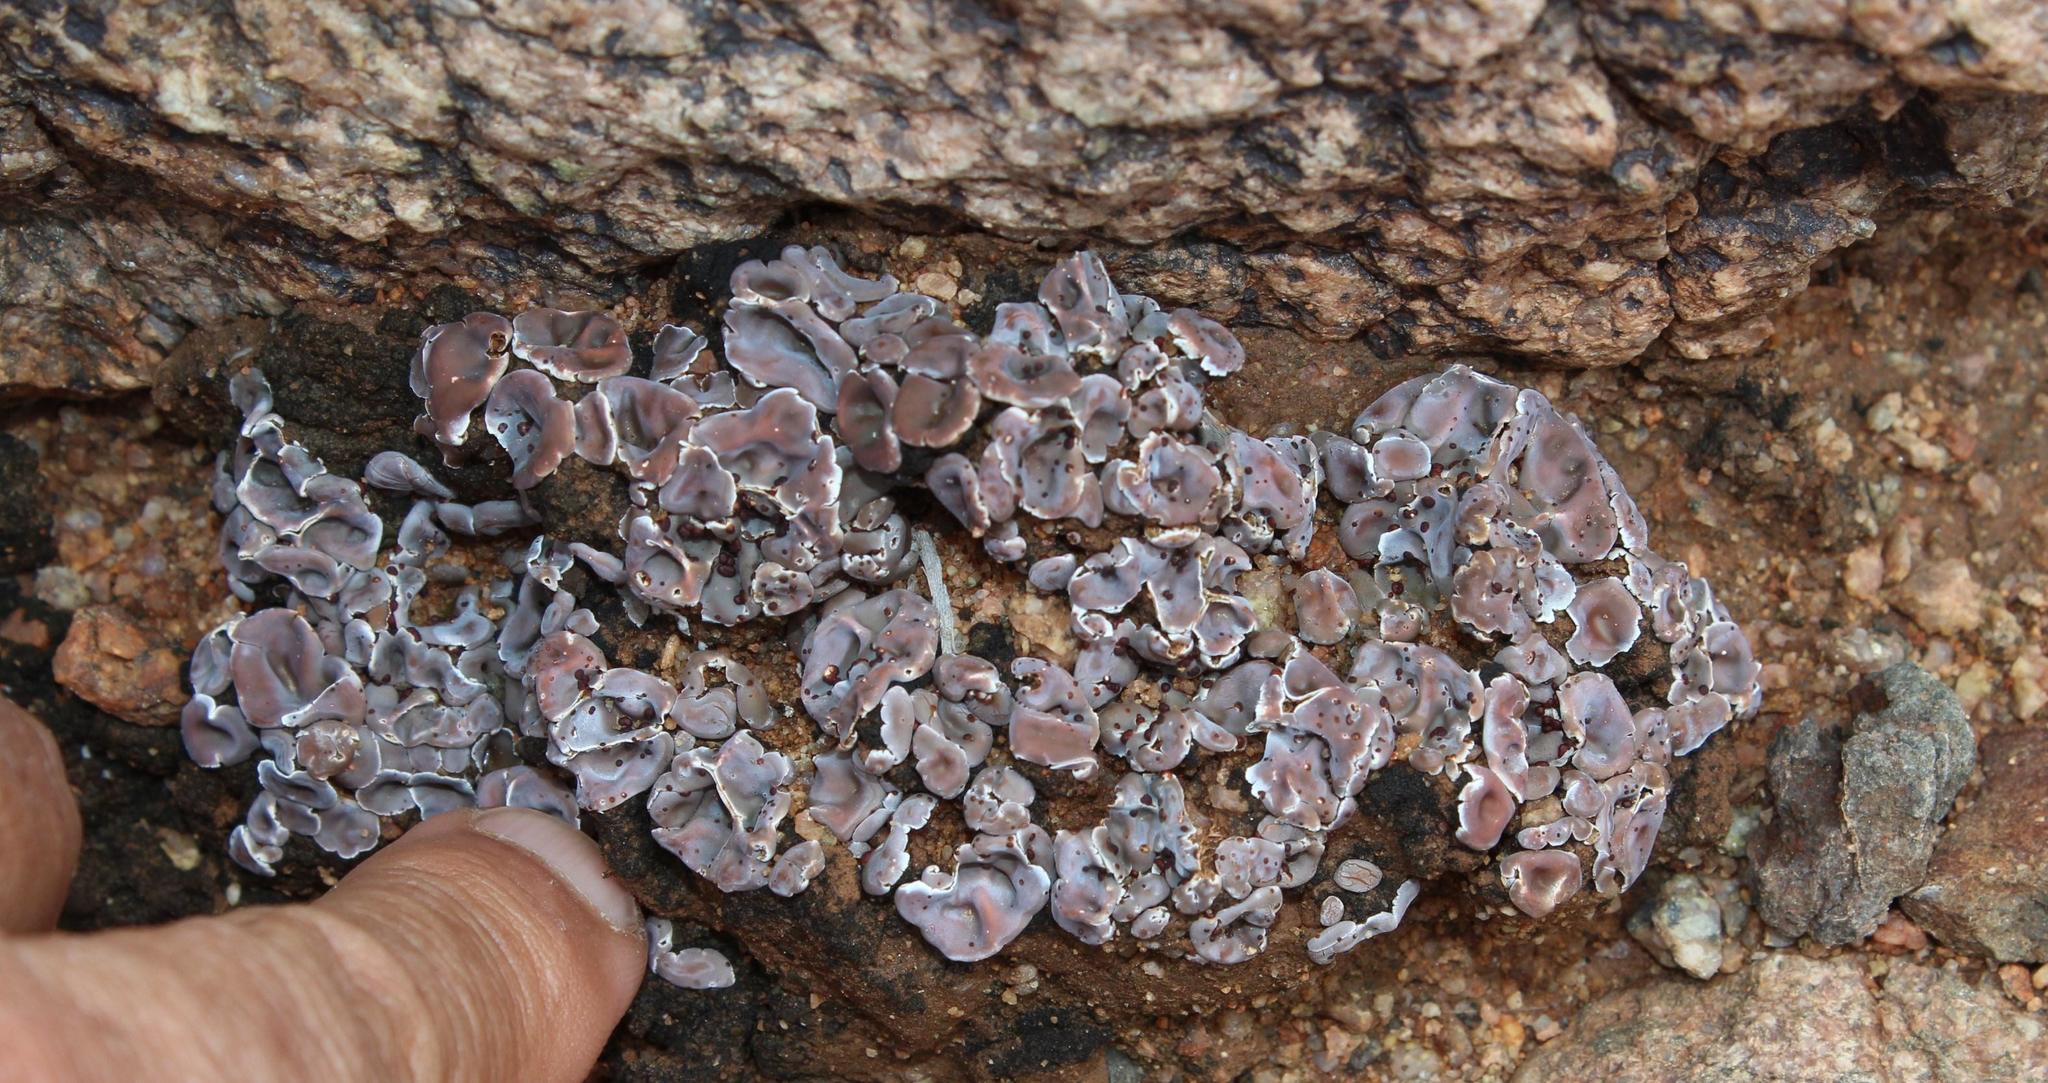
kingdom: Fungi
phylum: Ascomycota
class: Lecanoromycetes
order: Lecanorales
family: Psoraceae
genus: Psora
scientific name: Psora crenata
